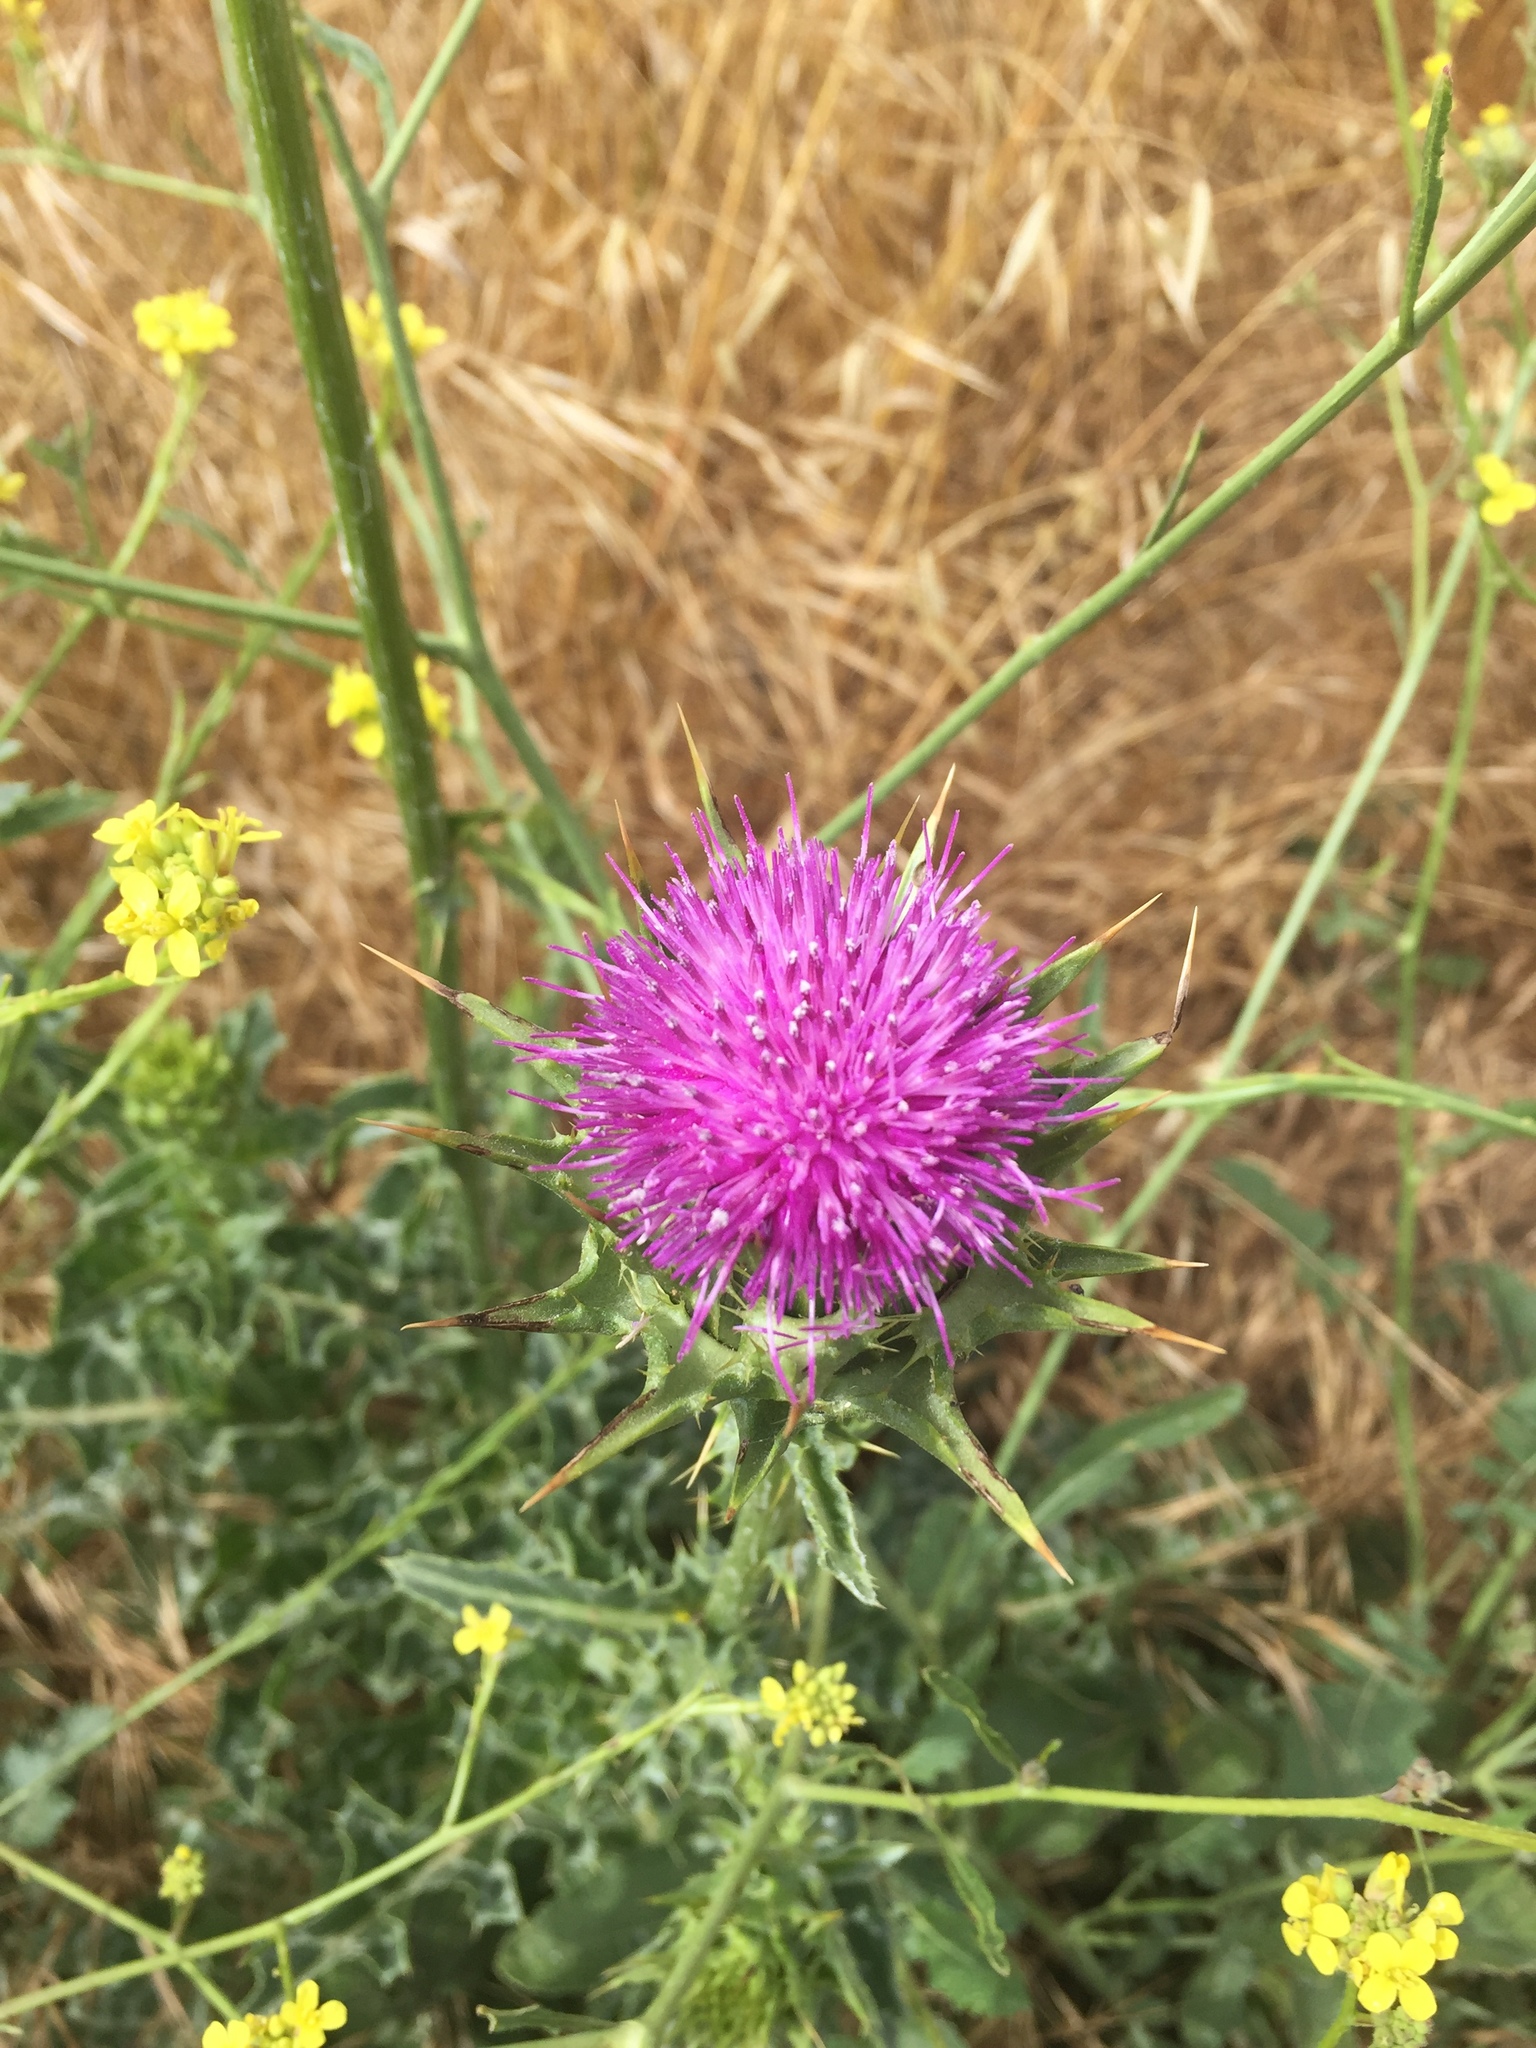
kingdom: Plantae
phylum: Tracheophyta
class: Magnoliopsida
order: Asterales
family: Asteraceae
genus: Silybum
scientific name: Silybum marianum
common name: Milk thistle
